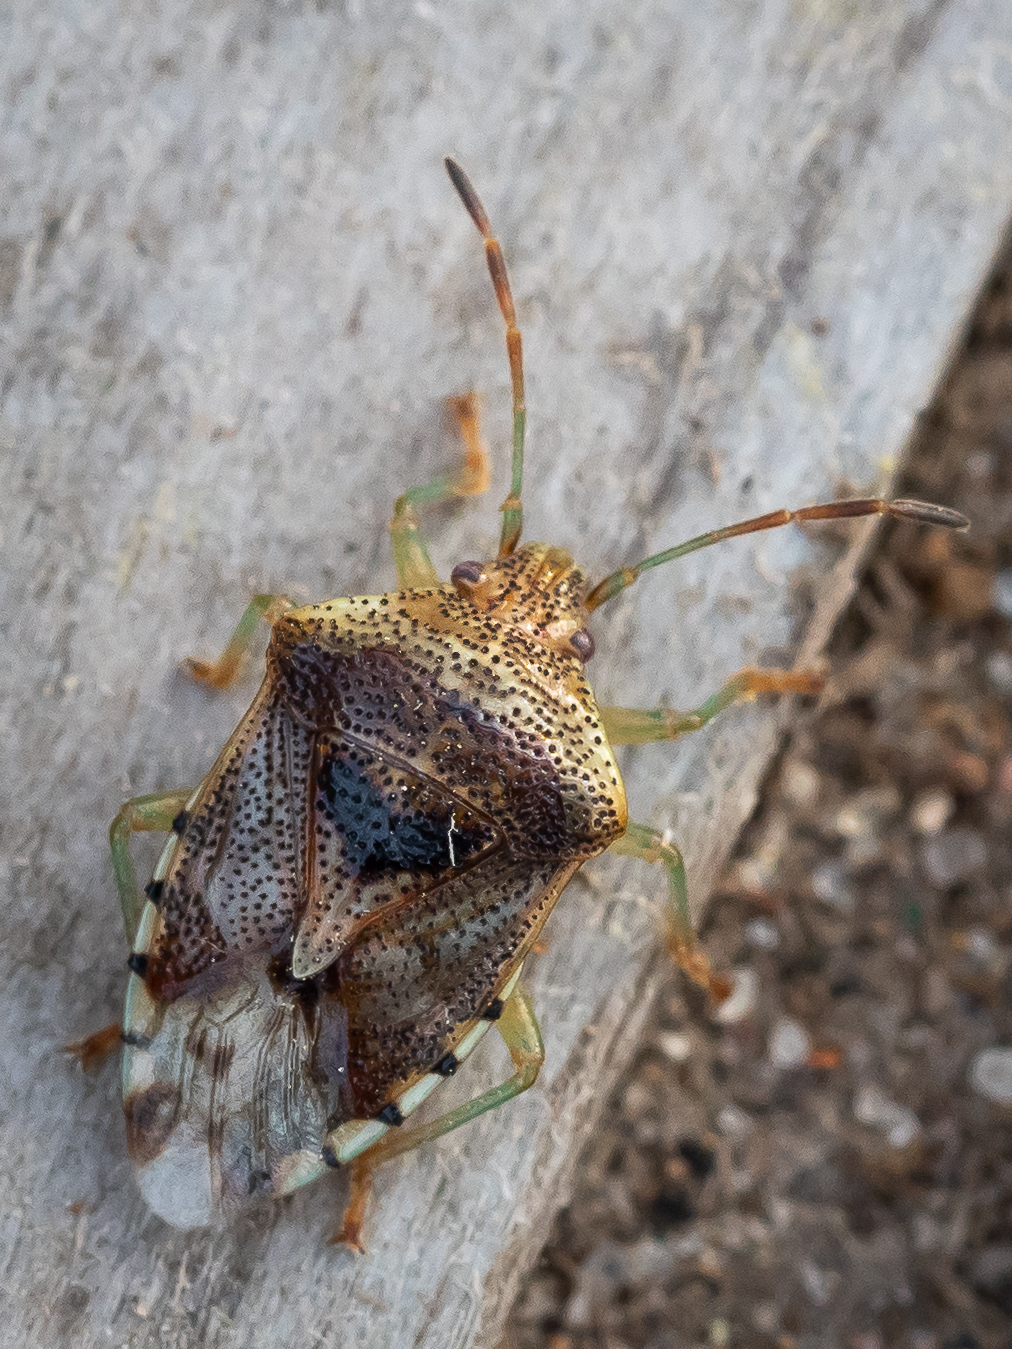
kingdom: Animalia
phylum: Arthropoda
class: Insecta
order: Hemiptera
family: Acanthosomatidae
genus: Elasmucha
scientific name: Elasmucha grisea
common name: Parent bug
